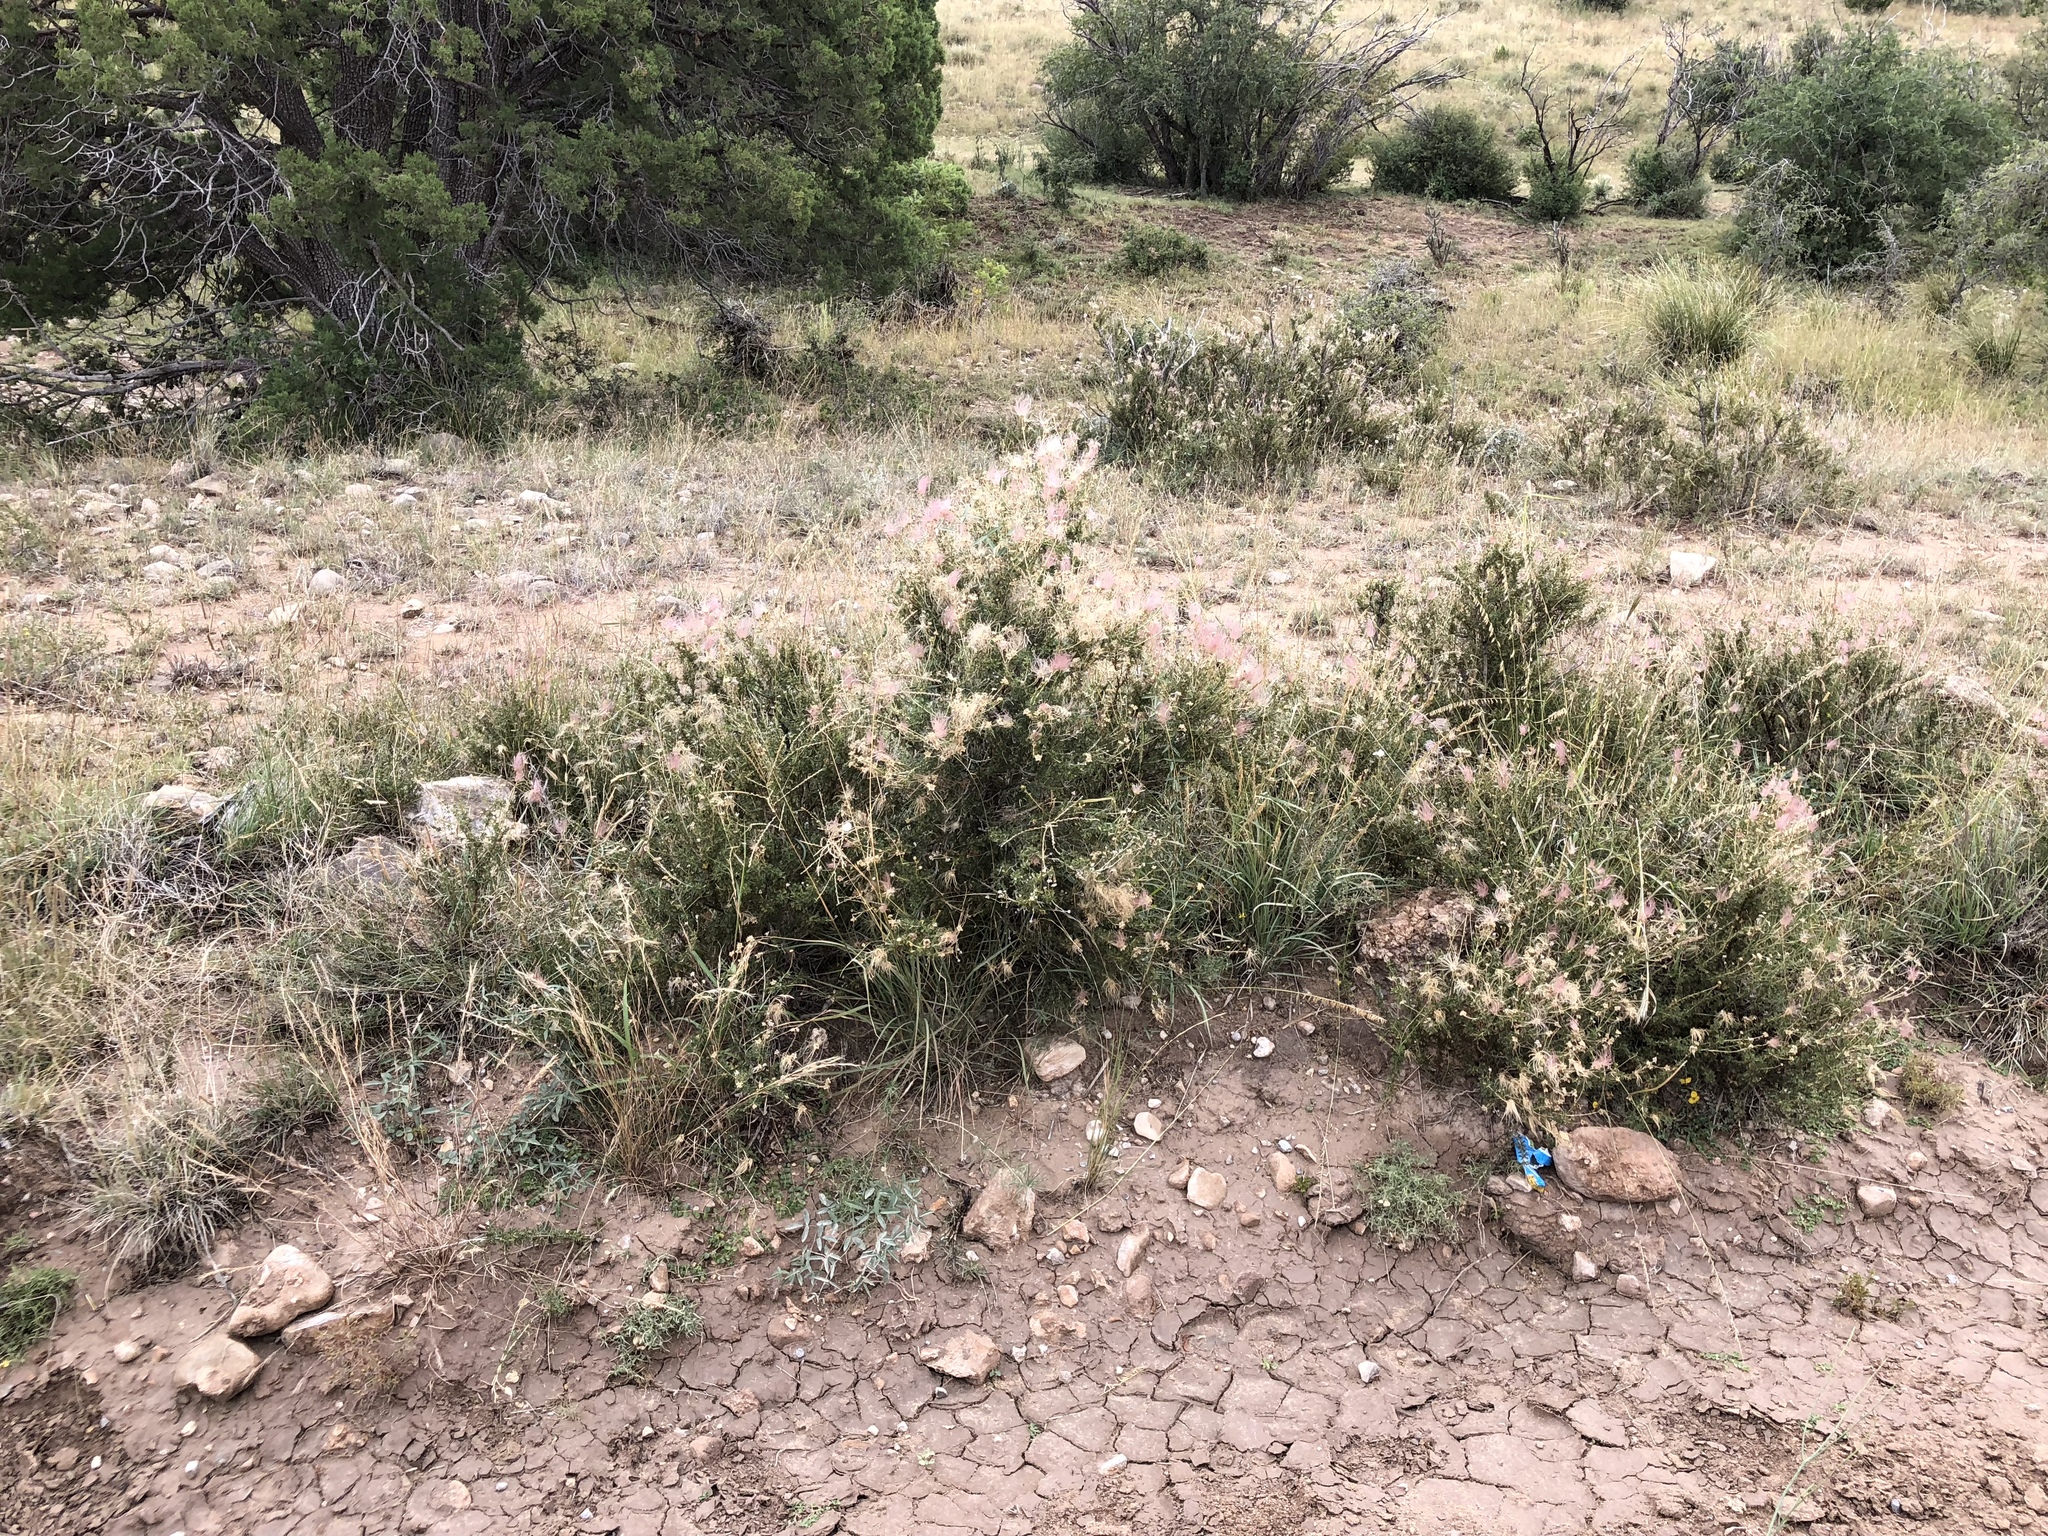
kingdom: Plantae
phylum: Tracheophyta
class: Magnoliopsida
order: Rosales
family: Rosaceae
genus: Fallugia
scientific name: Fallugia paradoxa
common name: Apache-plume
